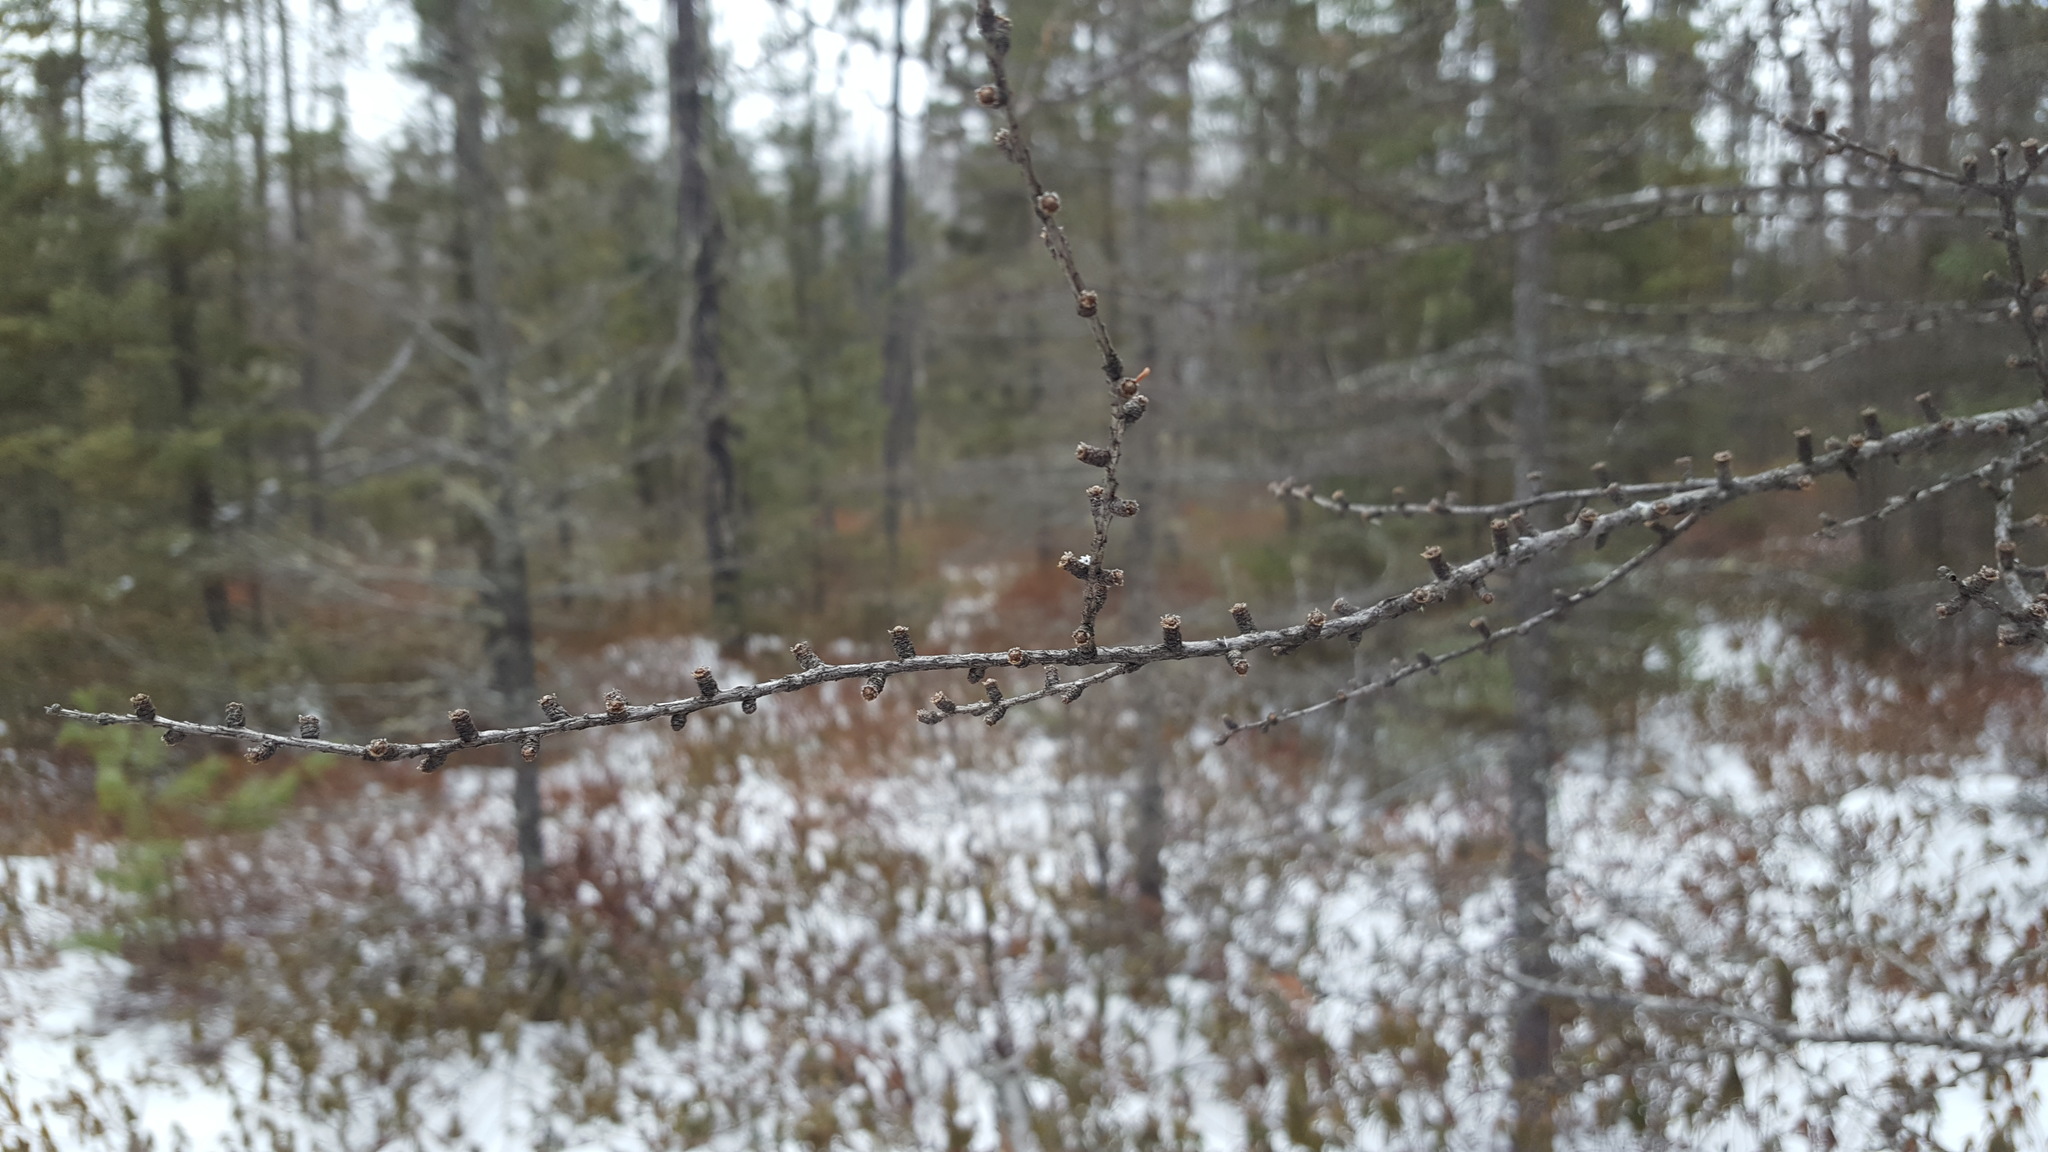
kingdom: Plantae
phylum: Tracheophyta
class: Pinopsida
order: Pinales
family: Pinaceae
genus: Larix
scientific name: Larix laricina
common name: American larch
